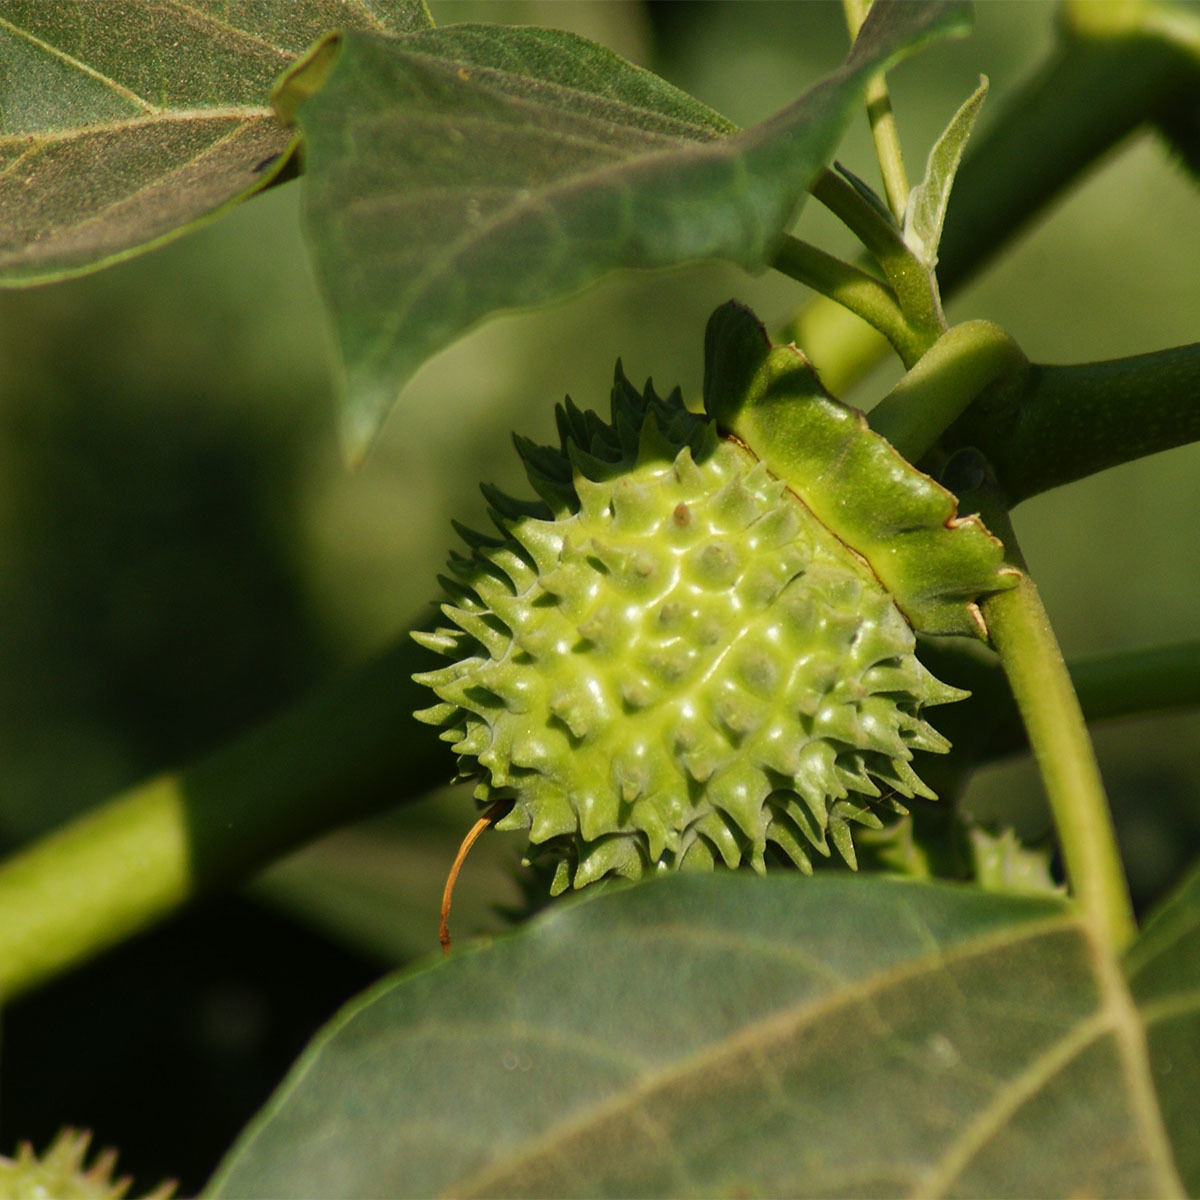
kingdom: Plantae
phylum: Tracheophyta
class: Magnoliopsida
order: Solanales
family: Solanaceae
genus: Datura
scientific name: Datura metel
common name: Jimsonweed
